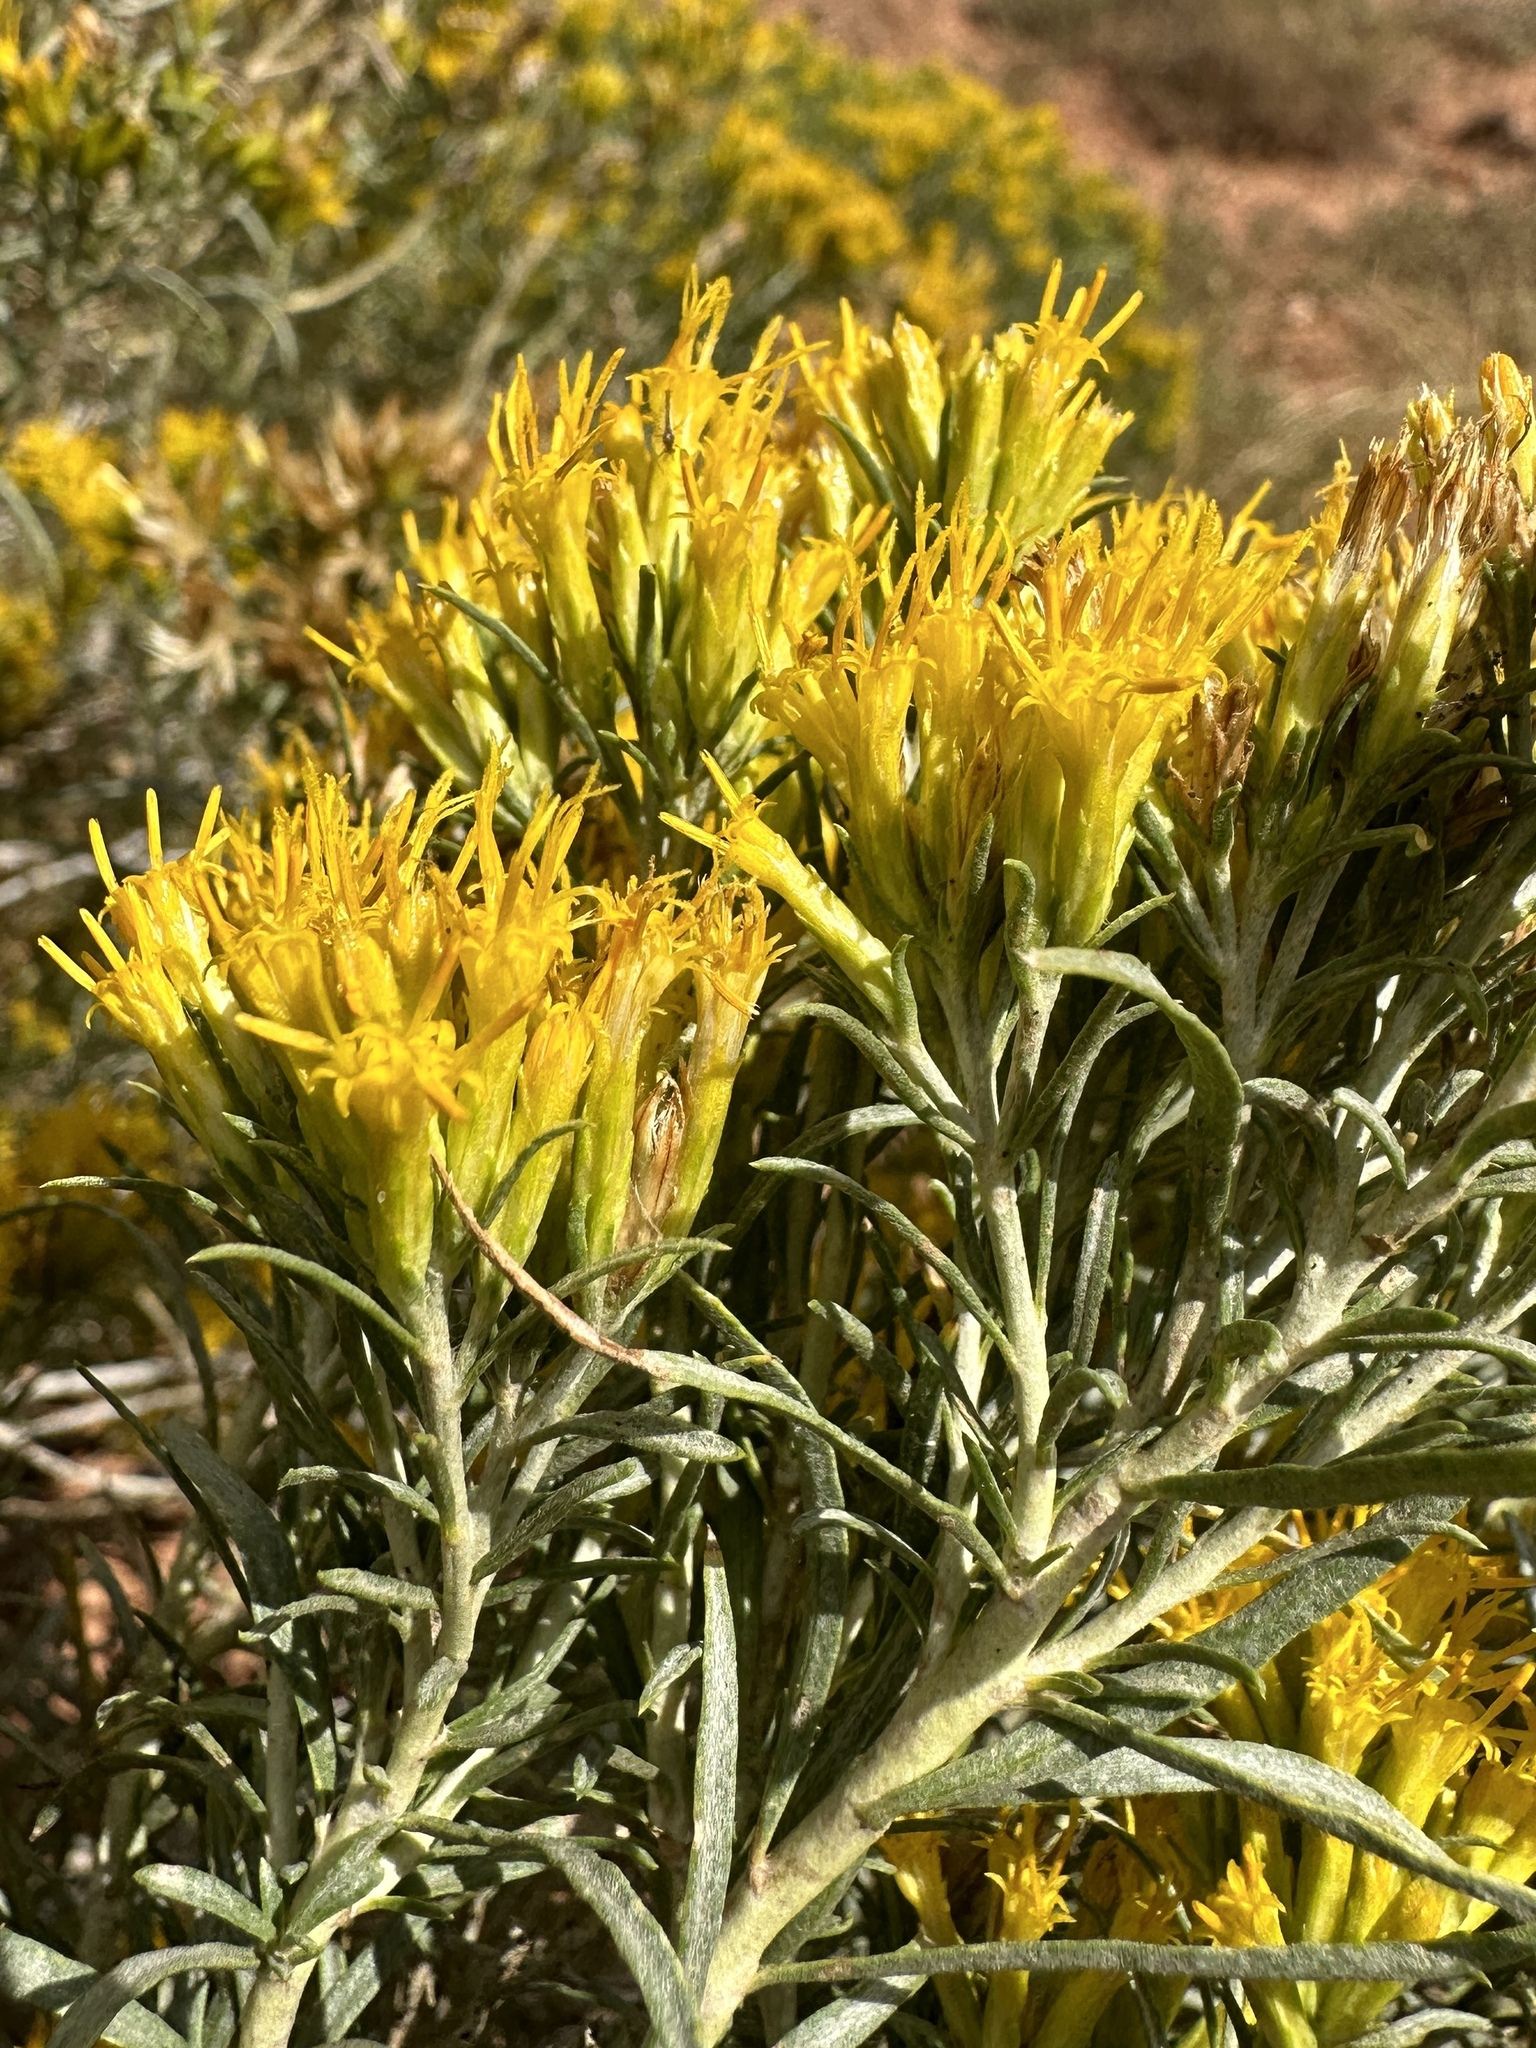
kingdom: Plantae
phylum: Tracheophyta
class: Magnoliopsida
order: Asterales
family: Asteraceae
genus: Ericameria
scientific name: Ericameria nauseosa
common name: Rubber rabbitbrush
